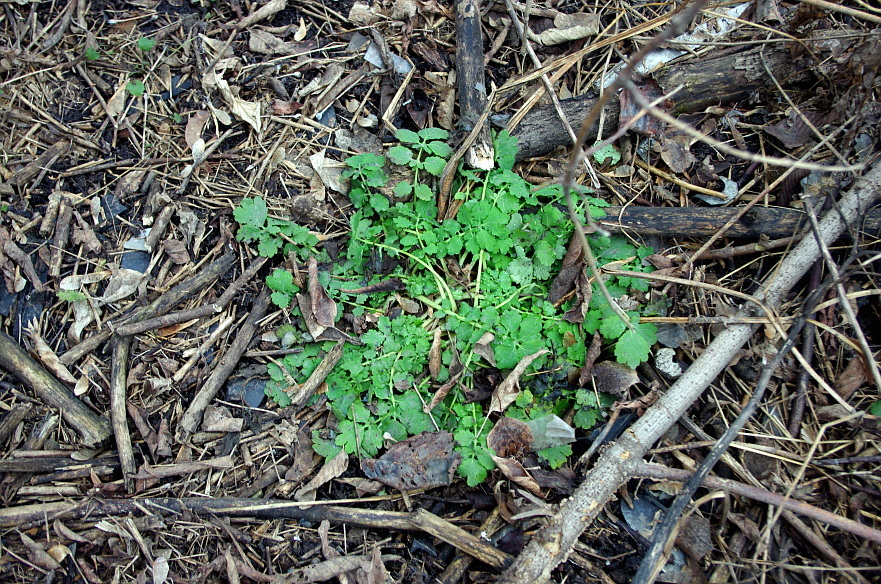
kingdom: Plantae
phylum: Tracheophyta
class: Magnoliopsida
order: Ranunculales
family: Papaveraceae
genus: Chelidonium
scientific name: Chelidonium majus
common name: Greater celandine
